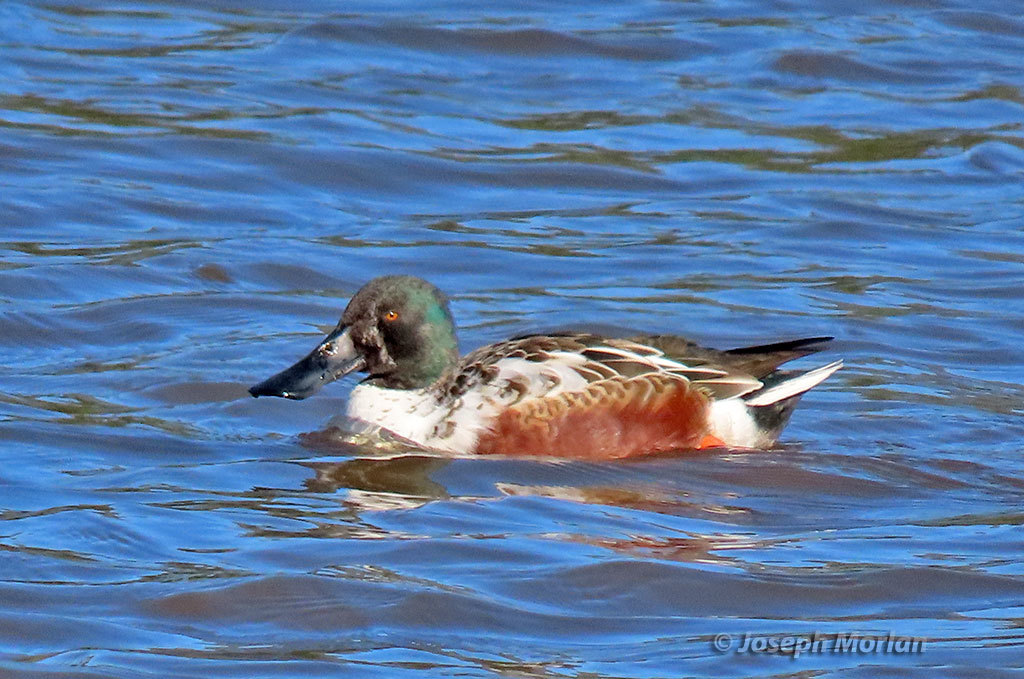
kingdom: Animalia
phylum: Chordata
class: Aves
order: Anseriformes
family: Anatidae
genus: Spatula
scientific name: Spatula clypeata
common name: Northern shoveler
